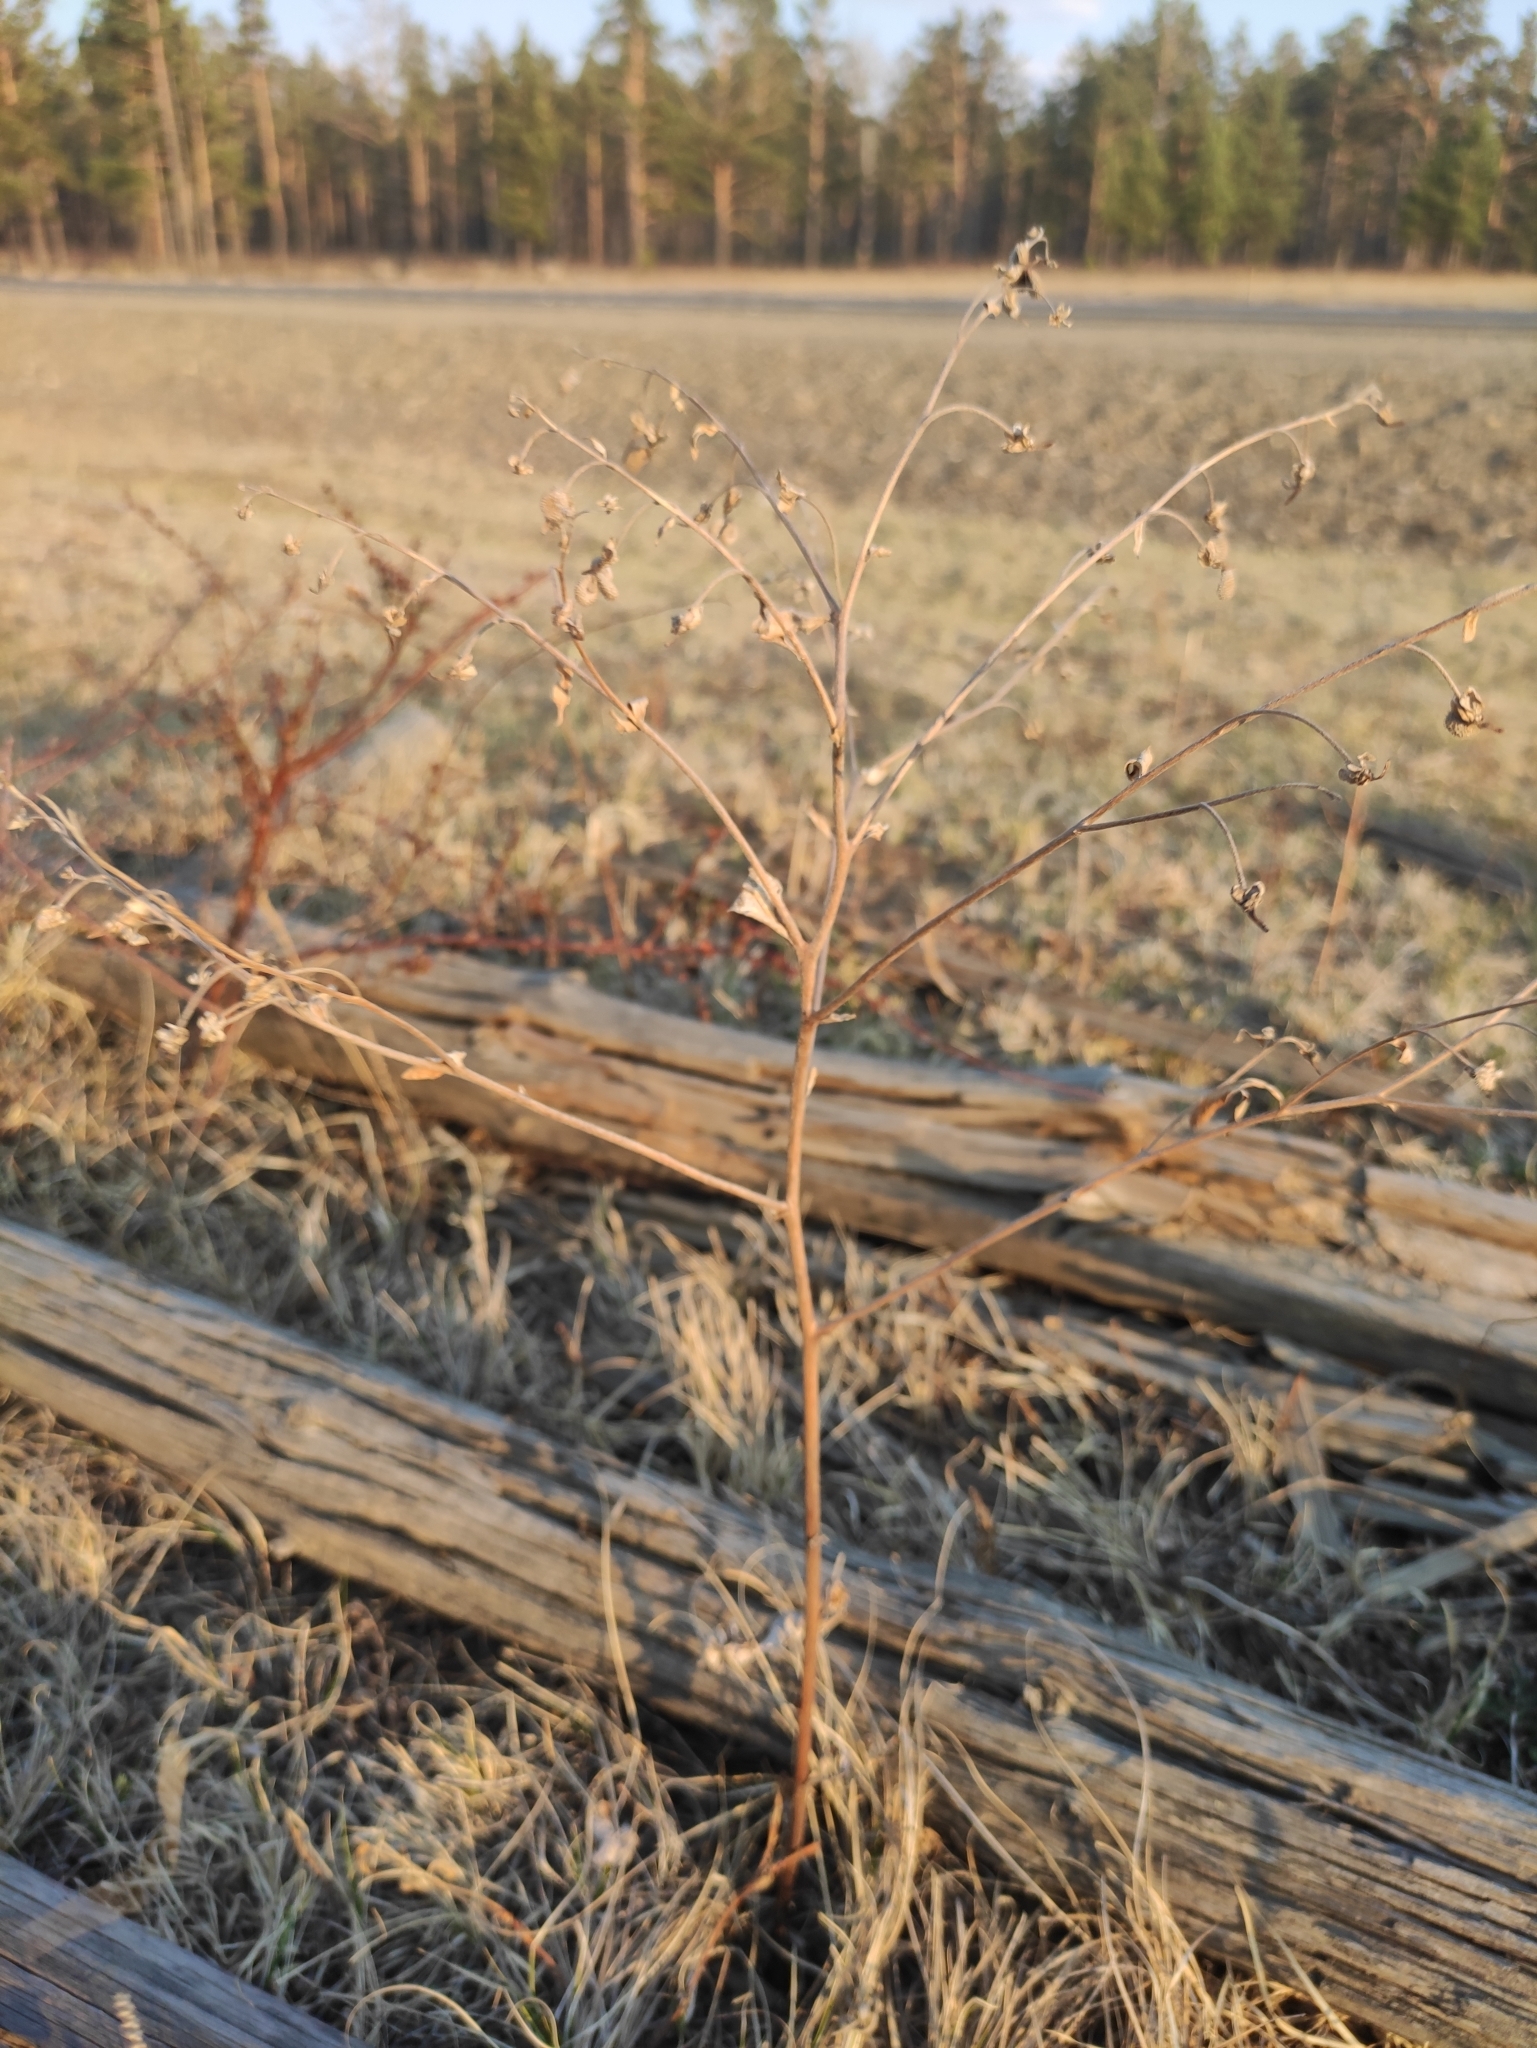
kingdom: Plantae
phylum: Tracheophyta
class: Magnoliopsida
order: Boraginales
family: Boraginaceae
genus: Cynoglossum
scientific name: Cynoglossum divaricatum
